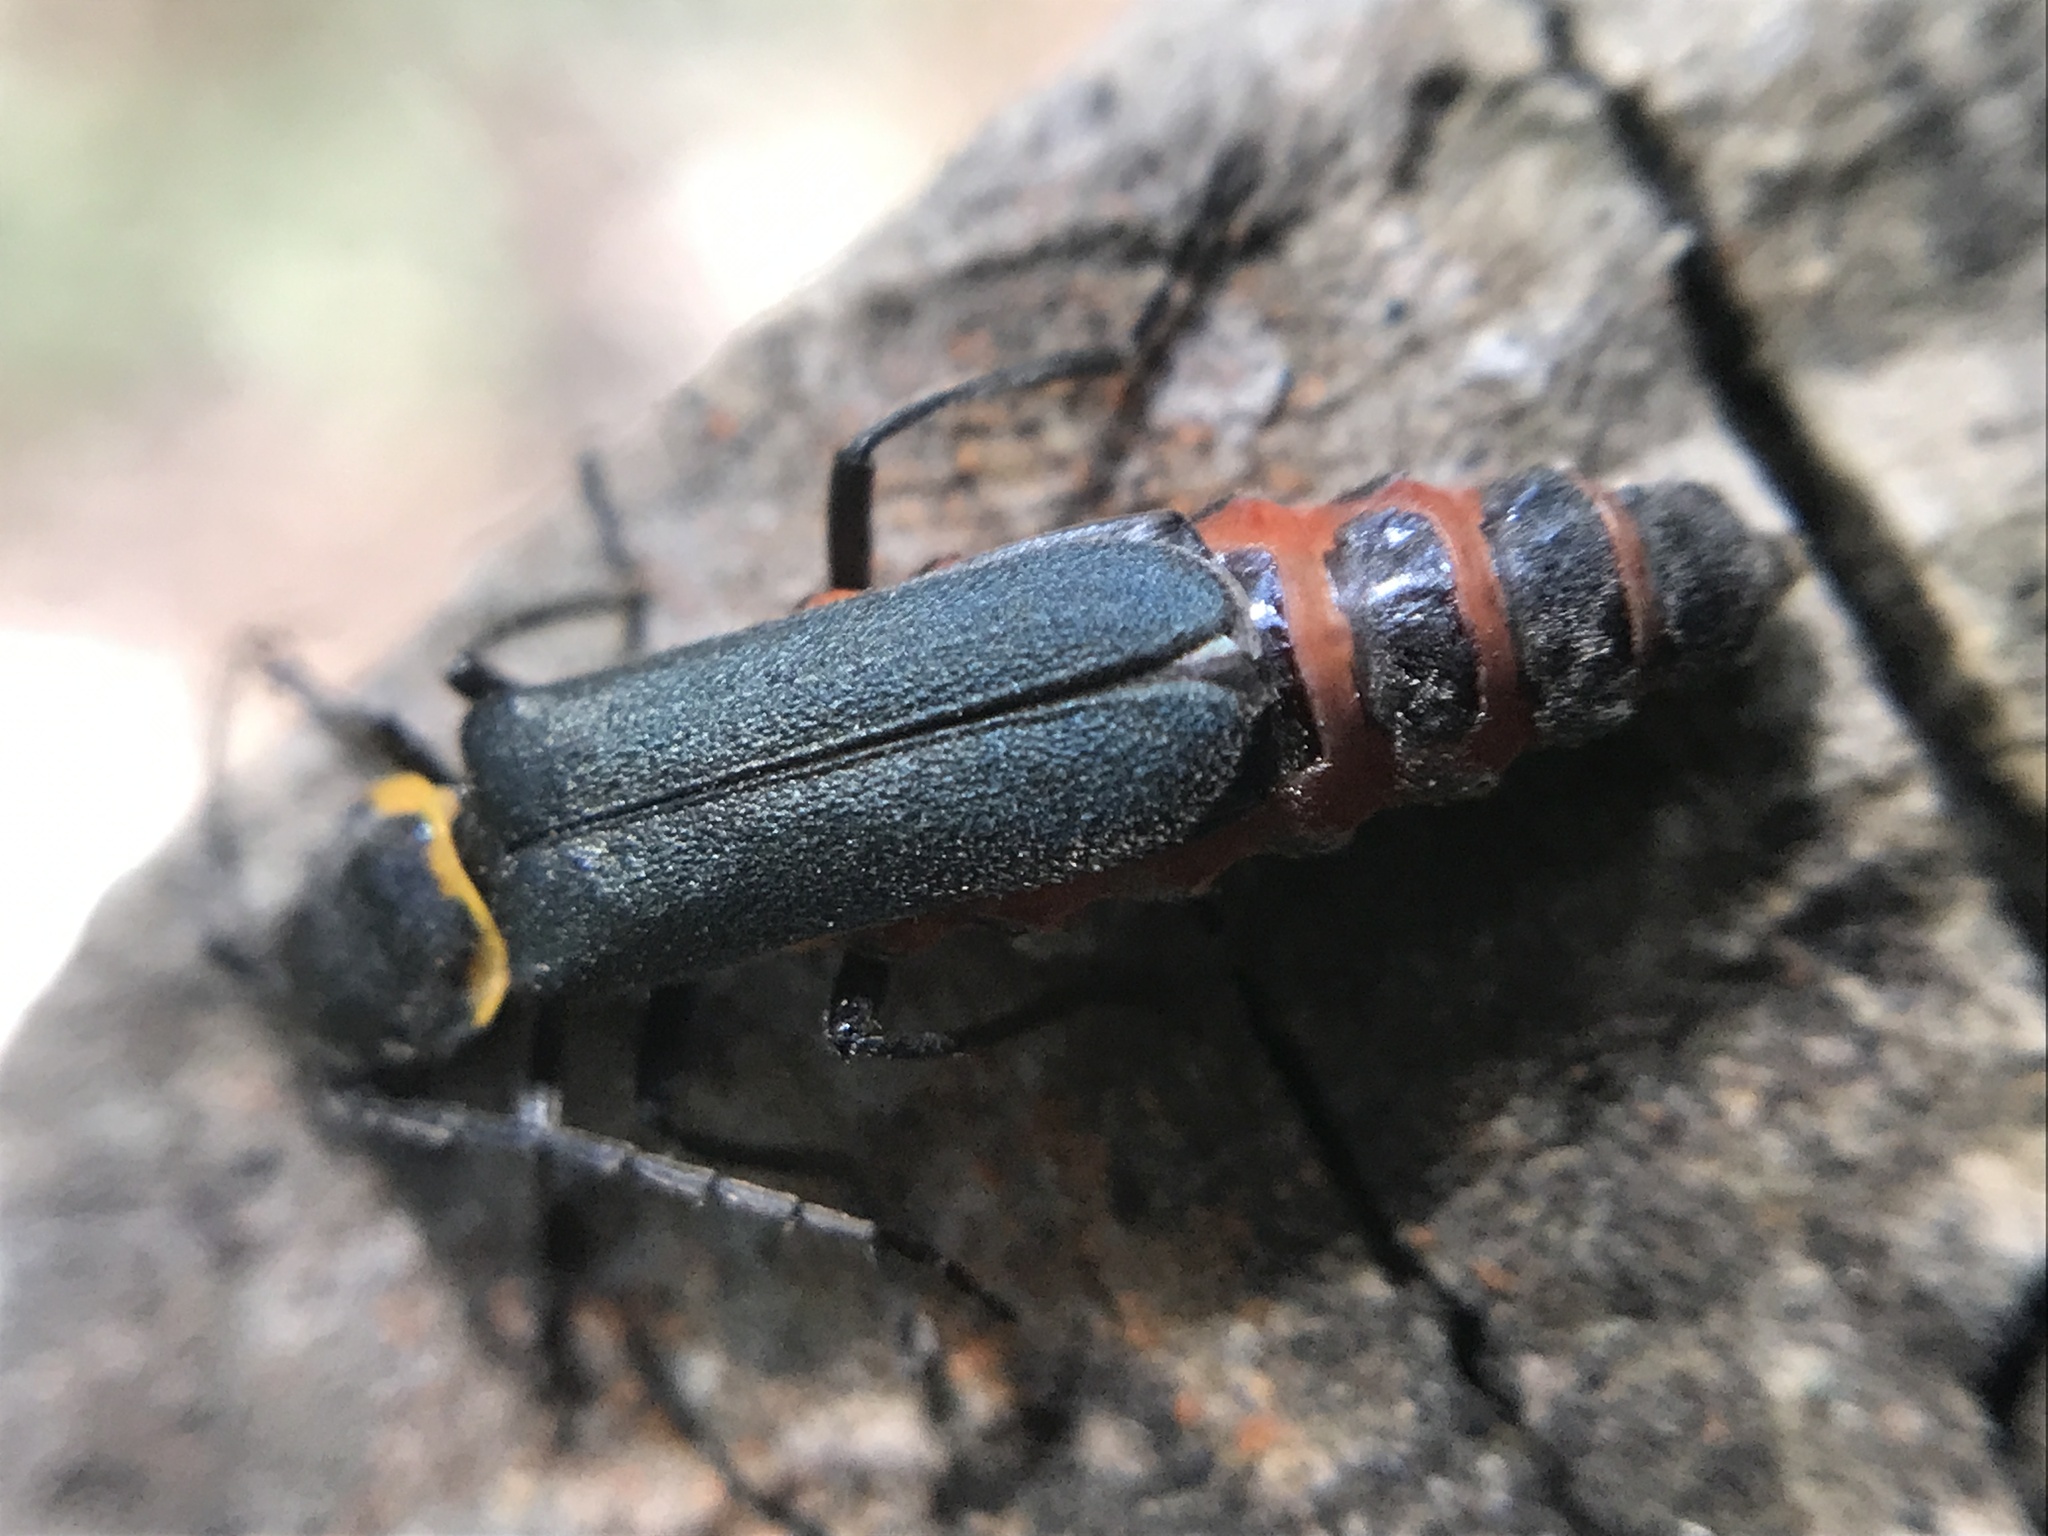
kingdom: Animalia
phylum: Arthropoda
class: Insecta
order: Coleoptera
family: Cantharidae
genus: Chauliognathus
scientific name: Chauliognathus
